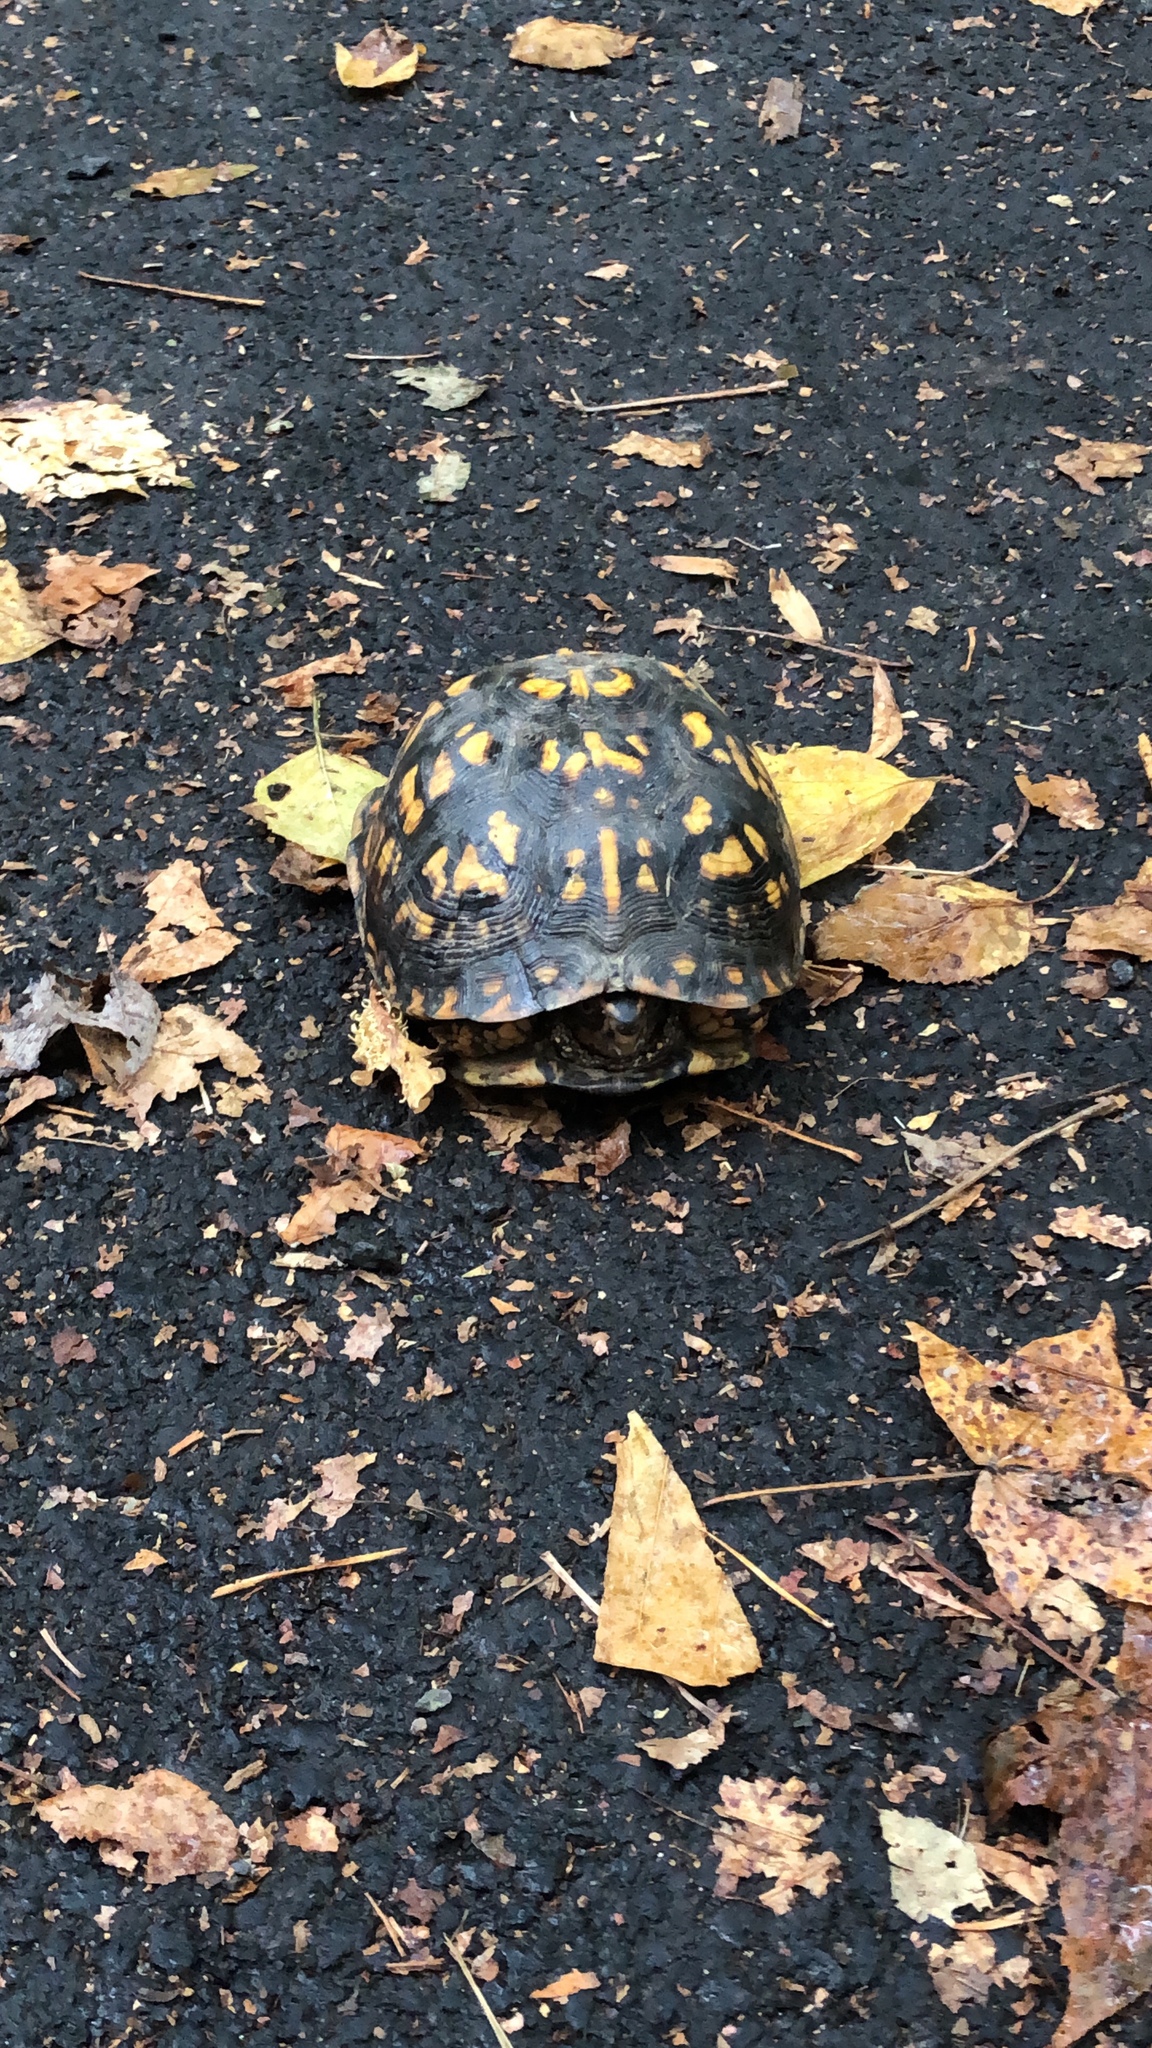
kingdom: Animalia
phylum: Chordata
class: Testudines
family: Emydidae
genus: Terrapene
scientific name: Terrapene carolina
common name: Common box turtle
